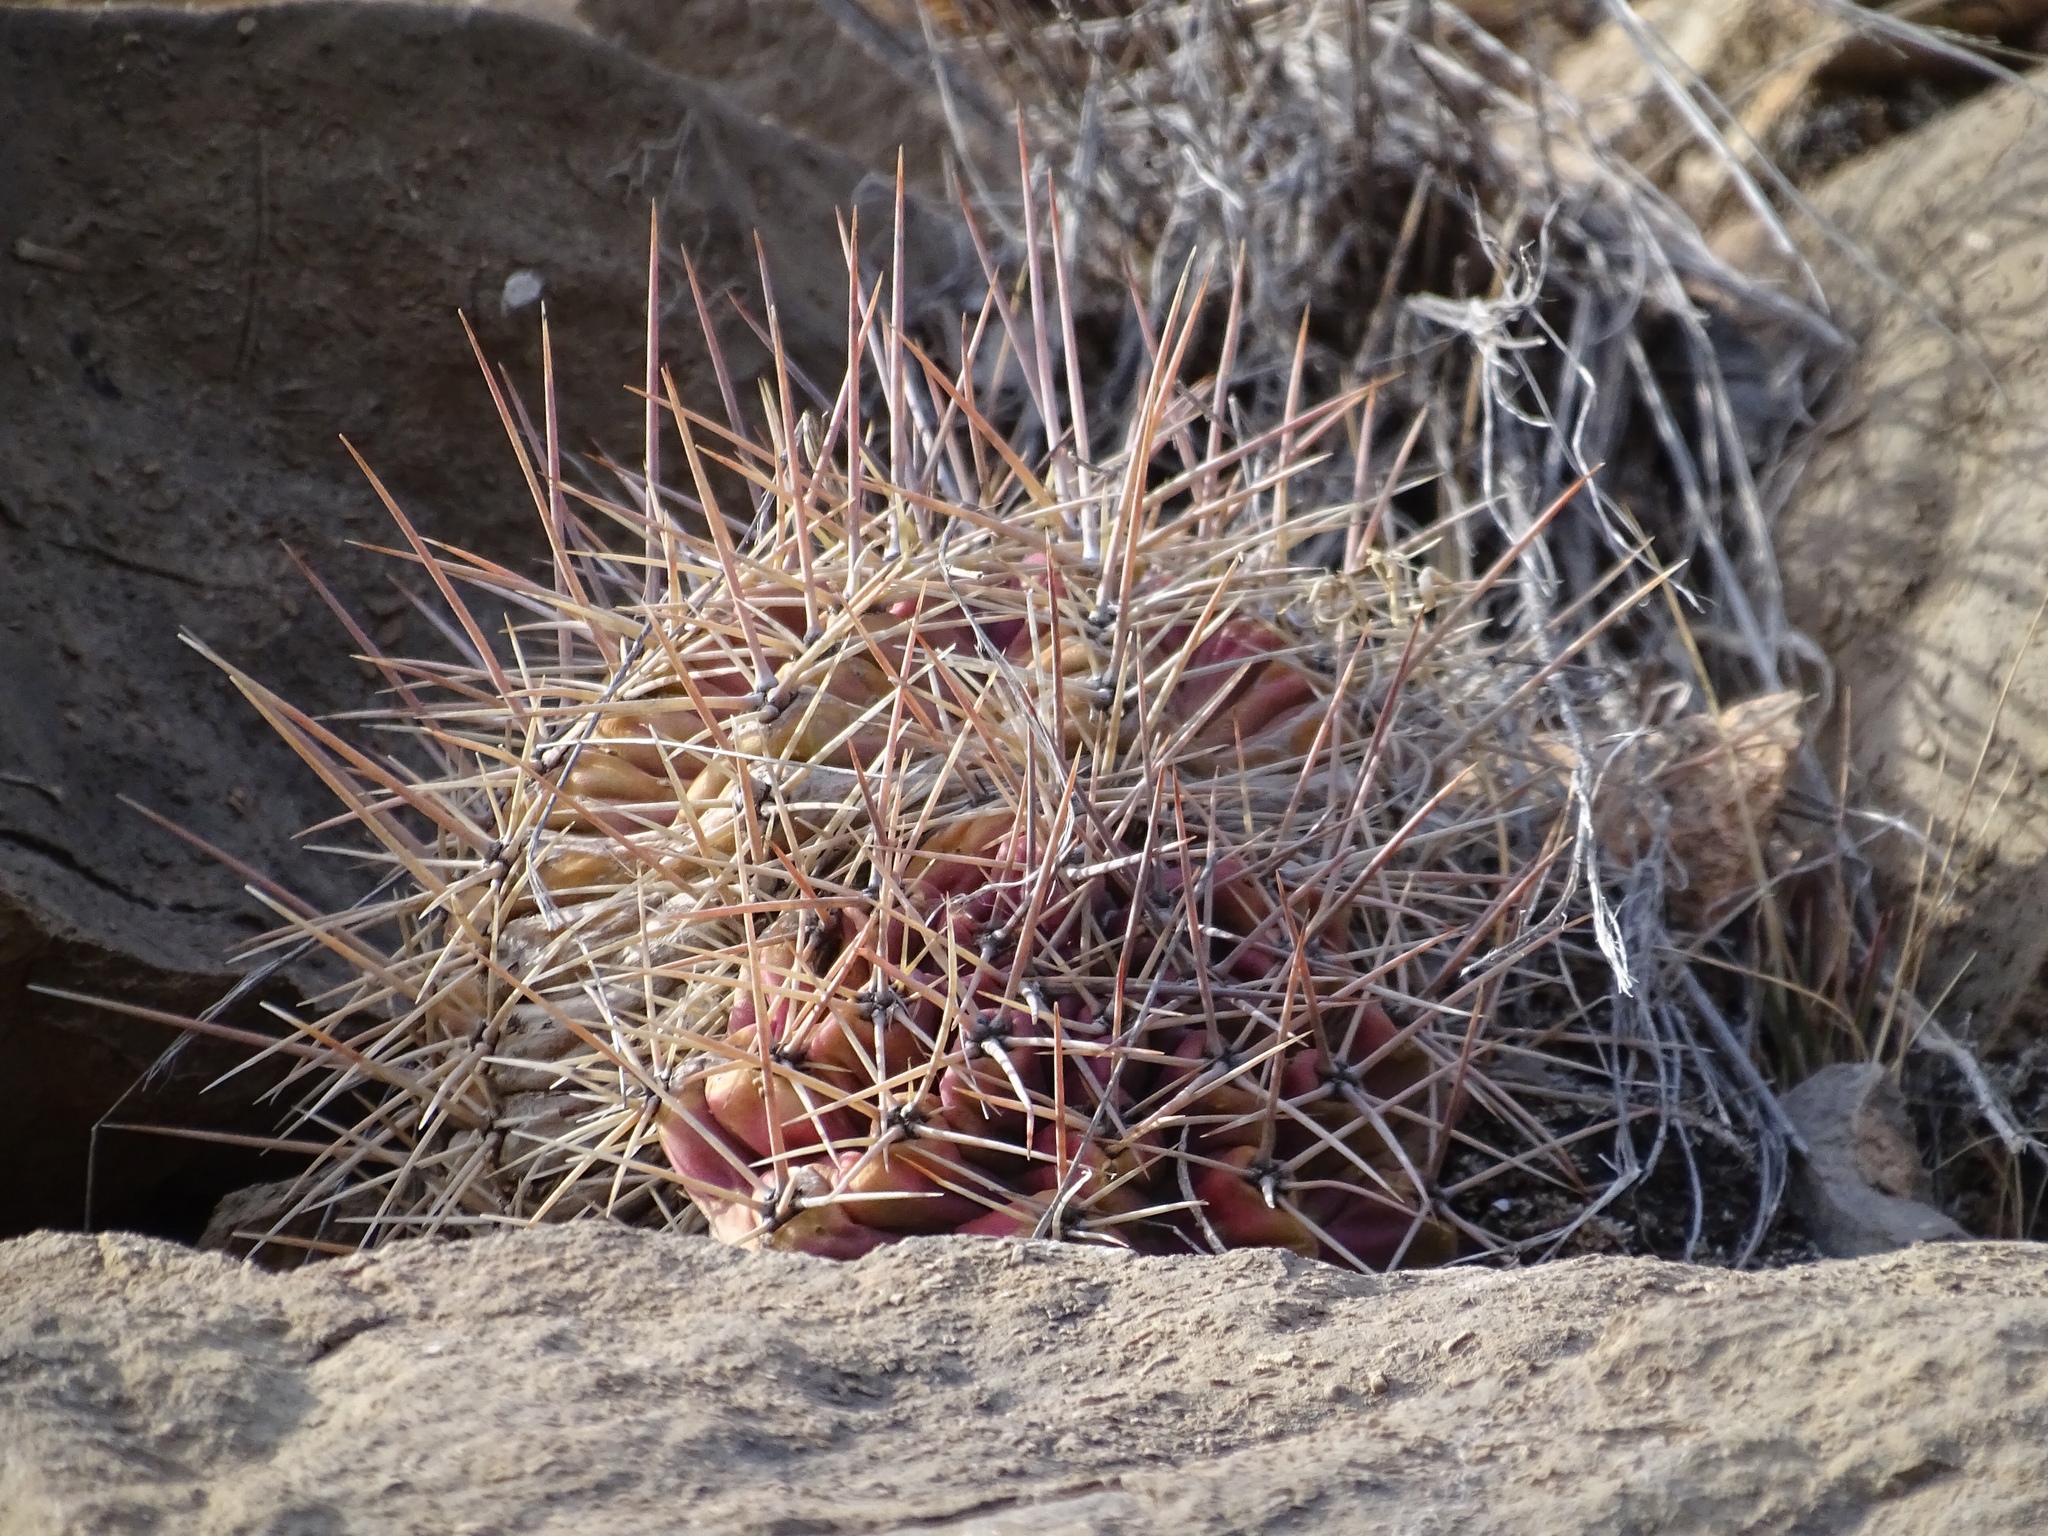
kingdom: Plantae
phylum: Tracheophyta
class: Magnoliopsida
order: Caryophyllales
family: Cactaceae
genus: Echinocereus
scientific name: Echinocereus coccineus
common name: Scarlet hedgehog cactus
